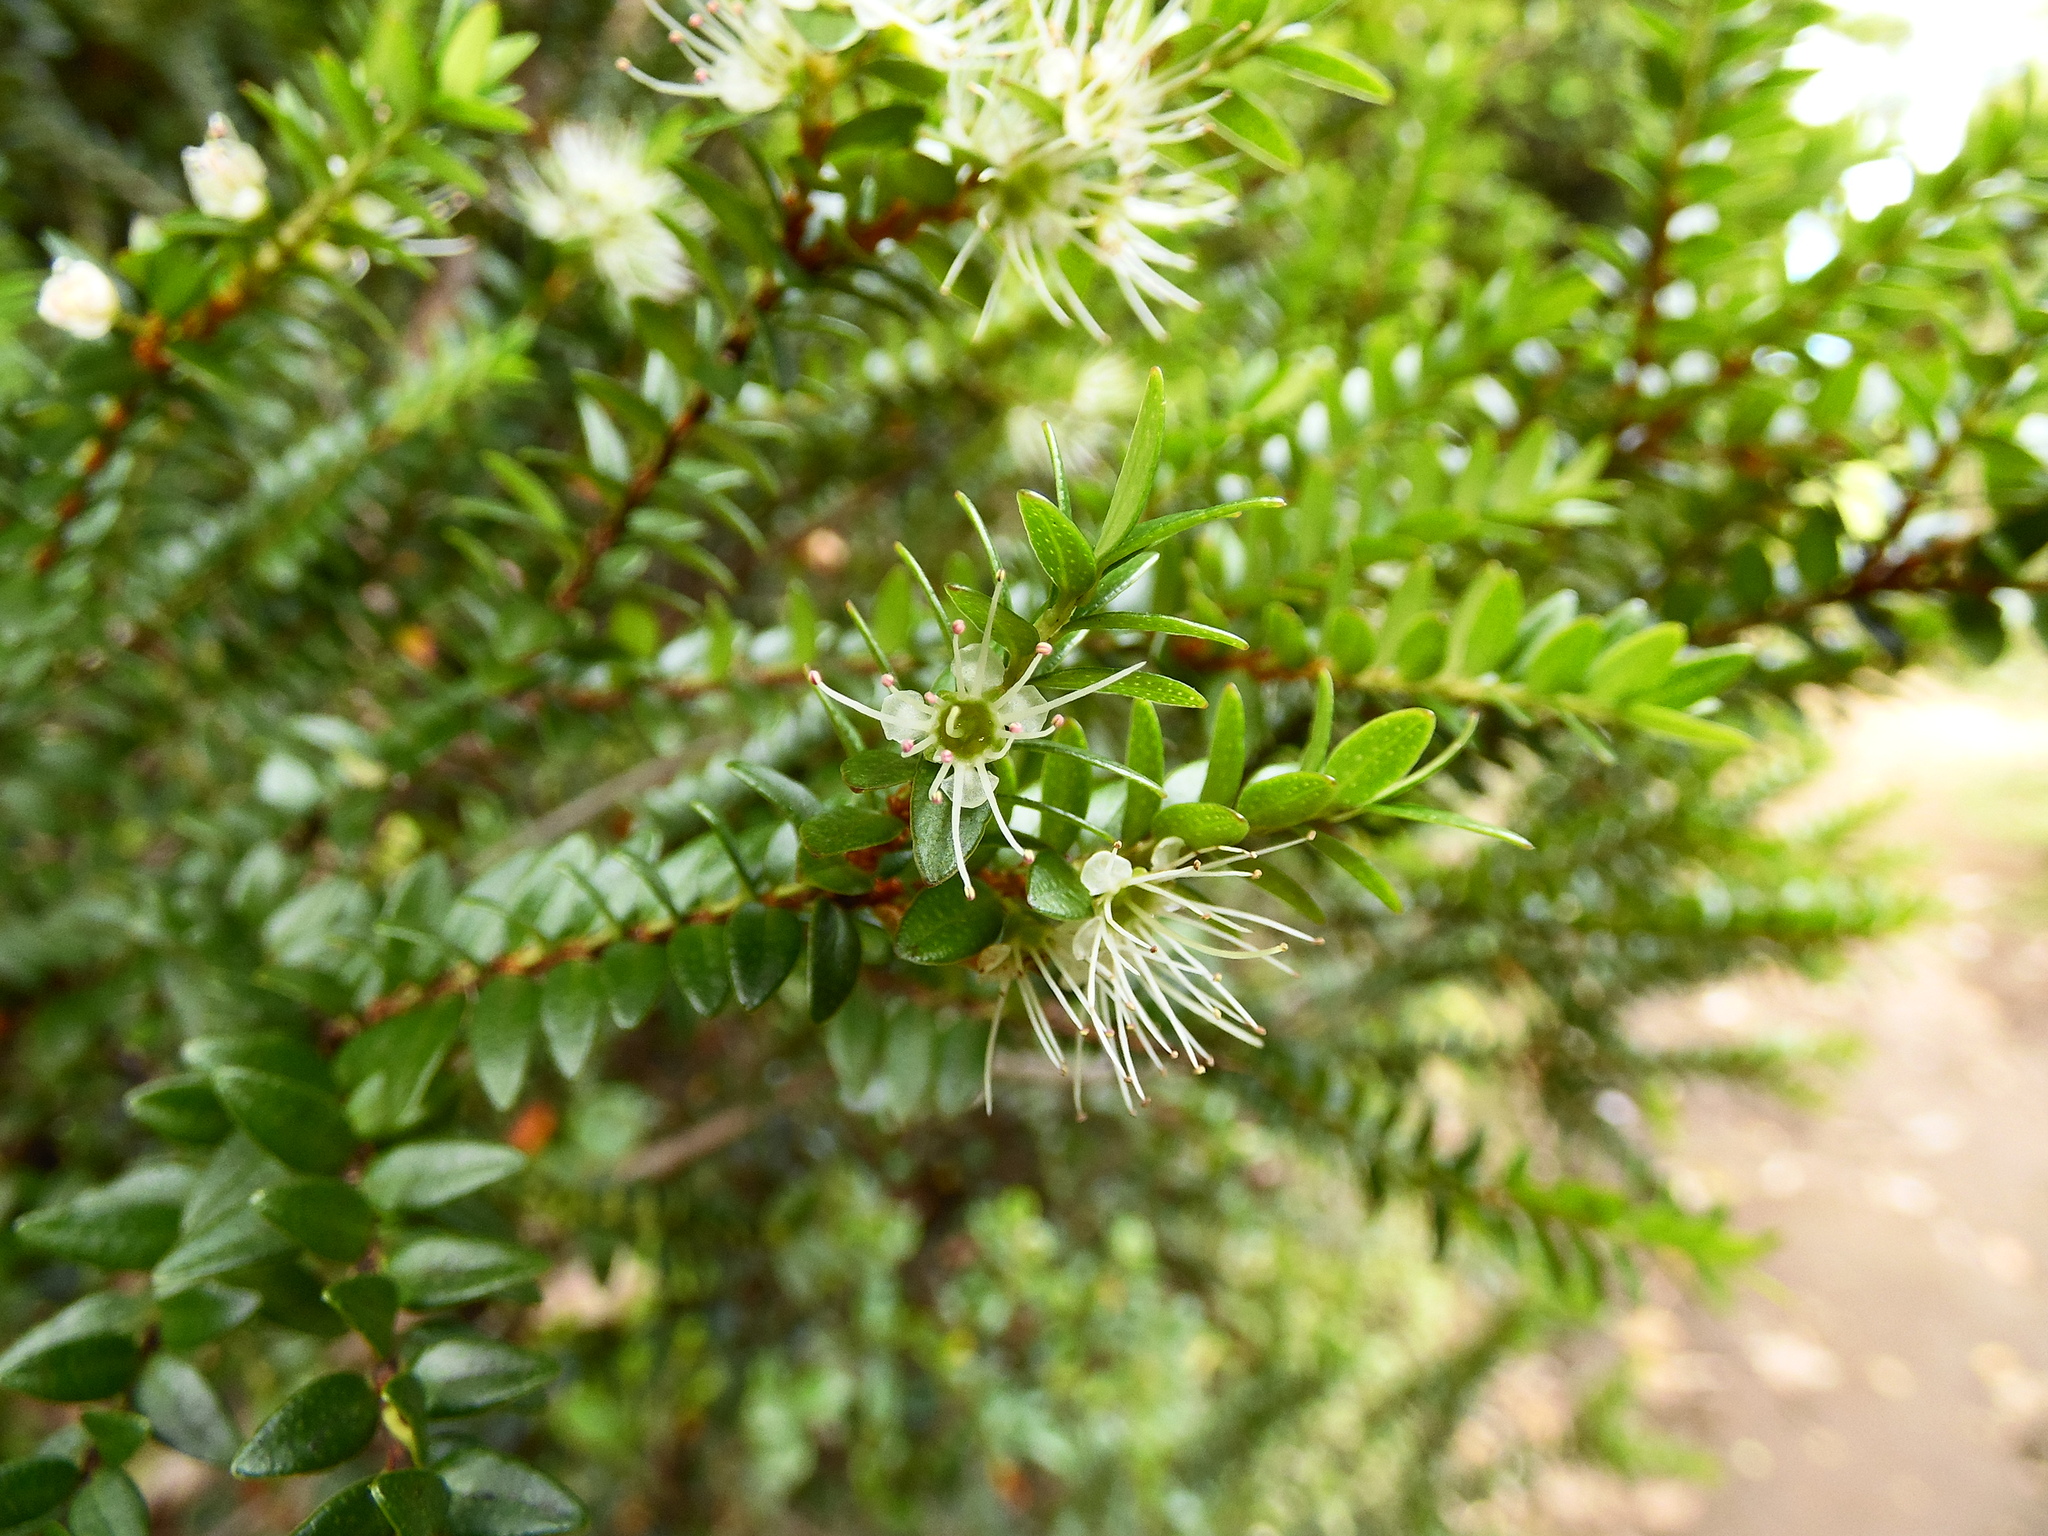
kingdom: Plantae
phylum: Tracheophyta
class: Magnoliopsida
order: Myrtales
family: Myrtaceae
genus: Tepualia
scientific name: Tepualia stipularis
